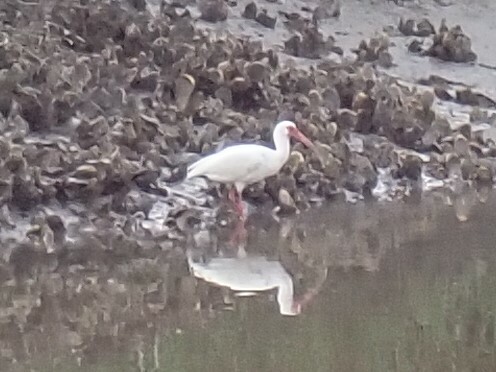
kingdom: Animalia
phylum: Chordata
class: Aves
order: Pelecaniformes
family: Threskiornithidae
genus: Eudocimus
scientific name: Eudocimus albus
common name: White ibis
